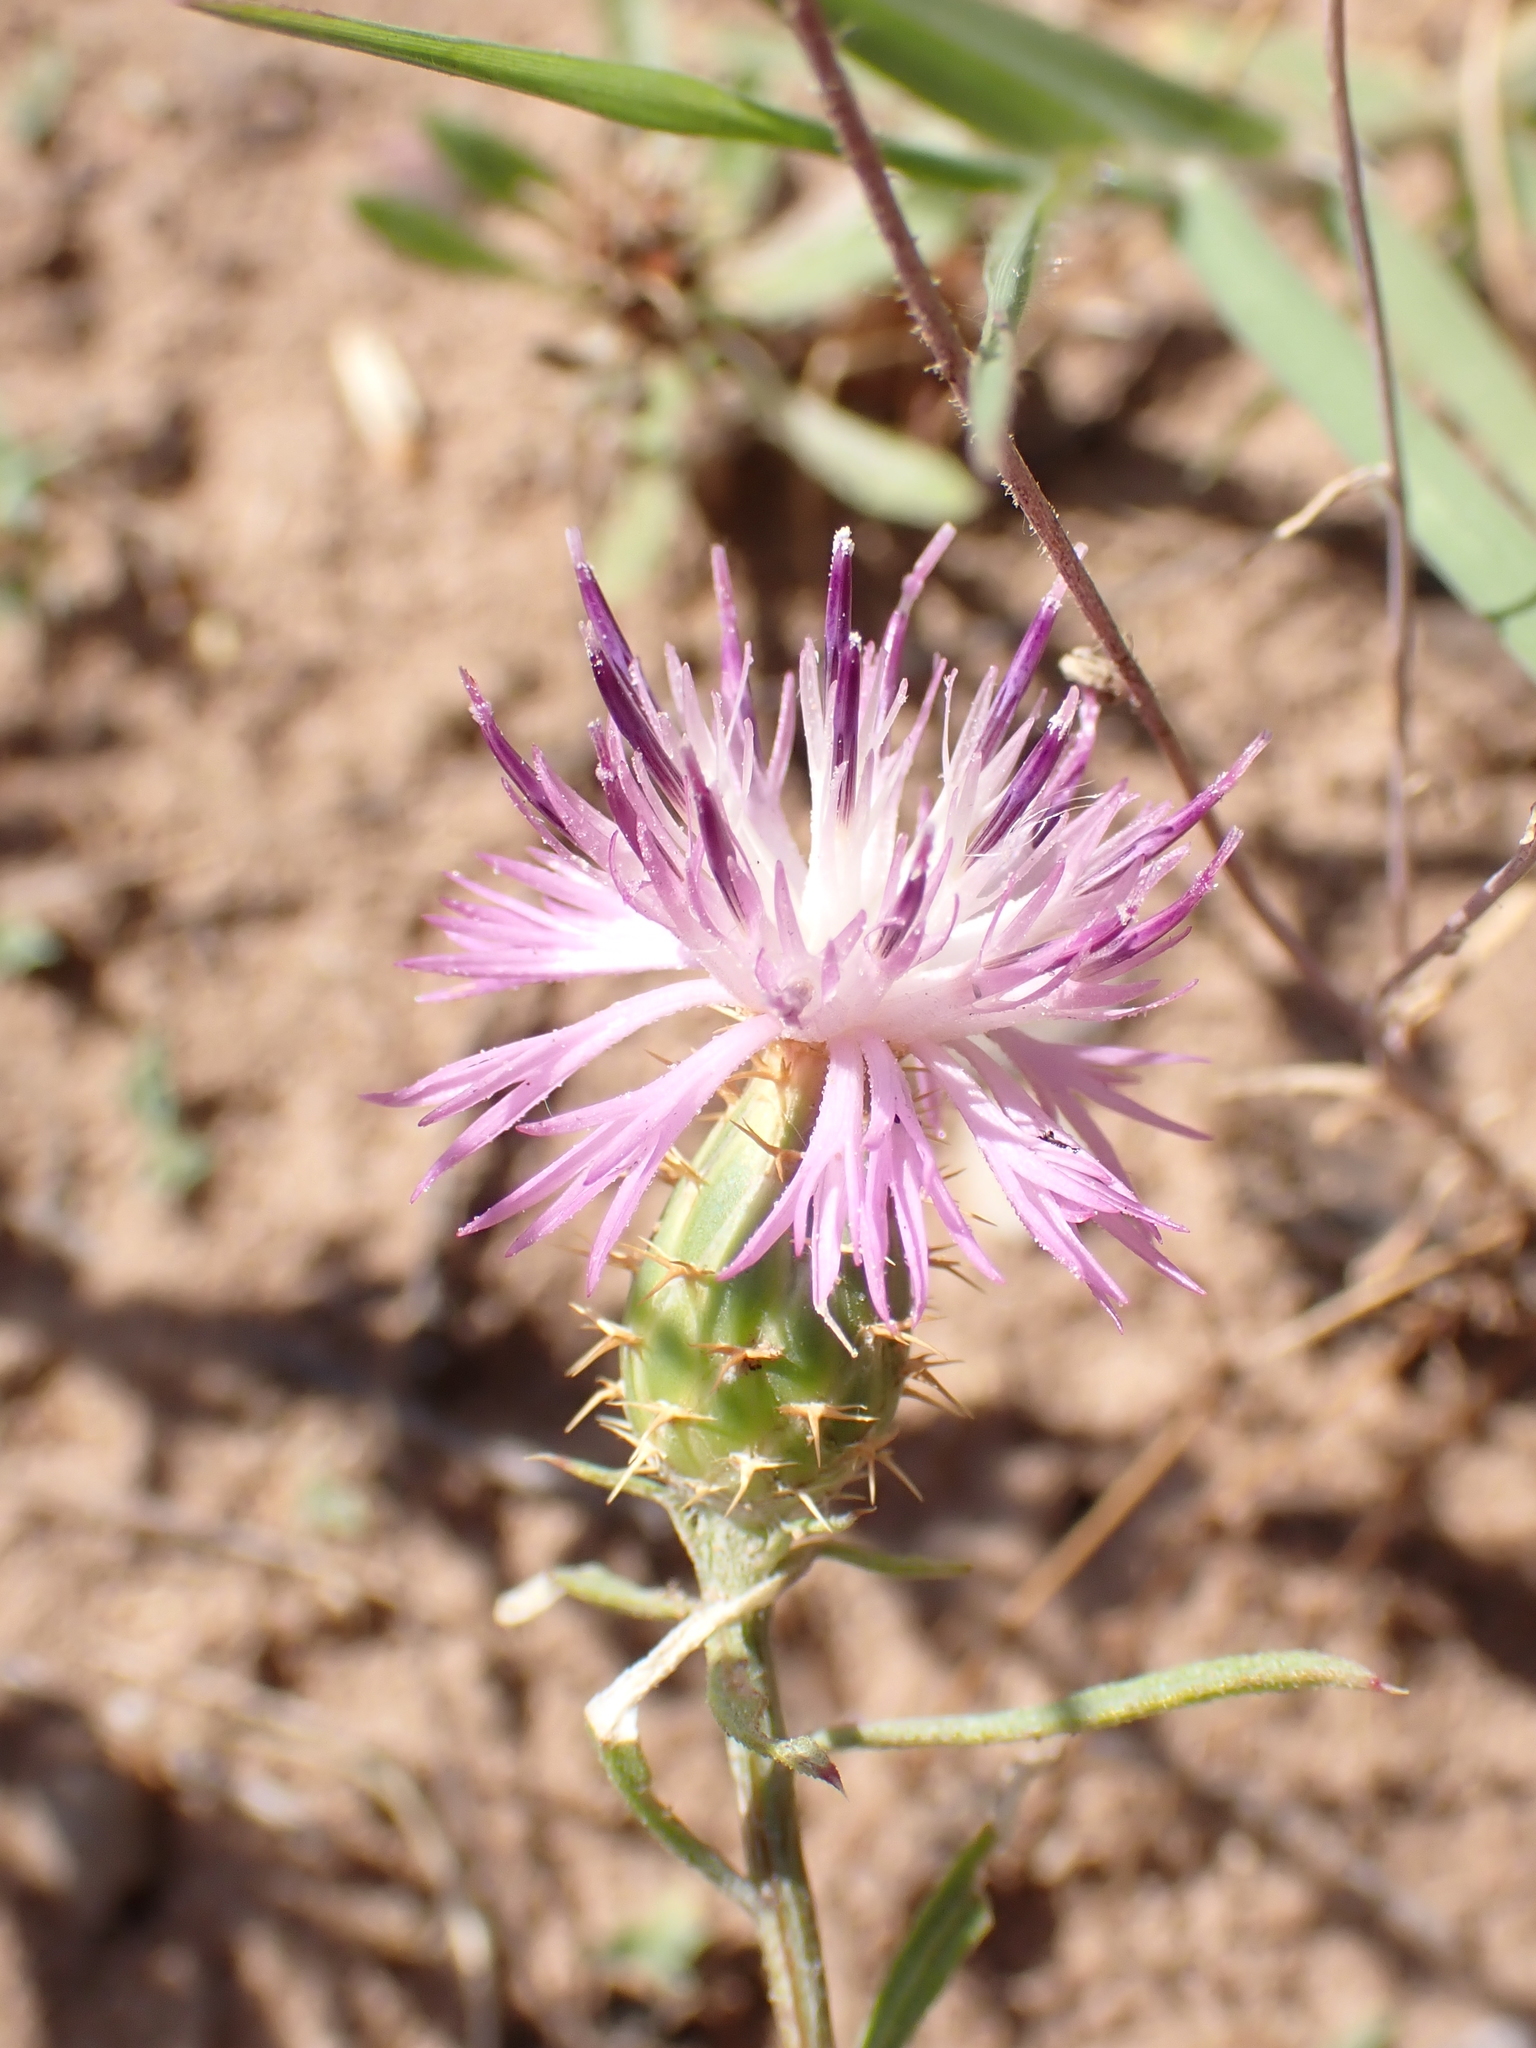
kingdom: Plantae
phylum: Tracheophyta
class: Magnoliopsida
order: Asterales
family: Asteraceae
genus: Centaurea
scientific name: Centaurea aspera
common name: Rough star-thistle
